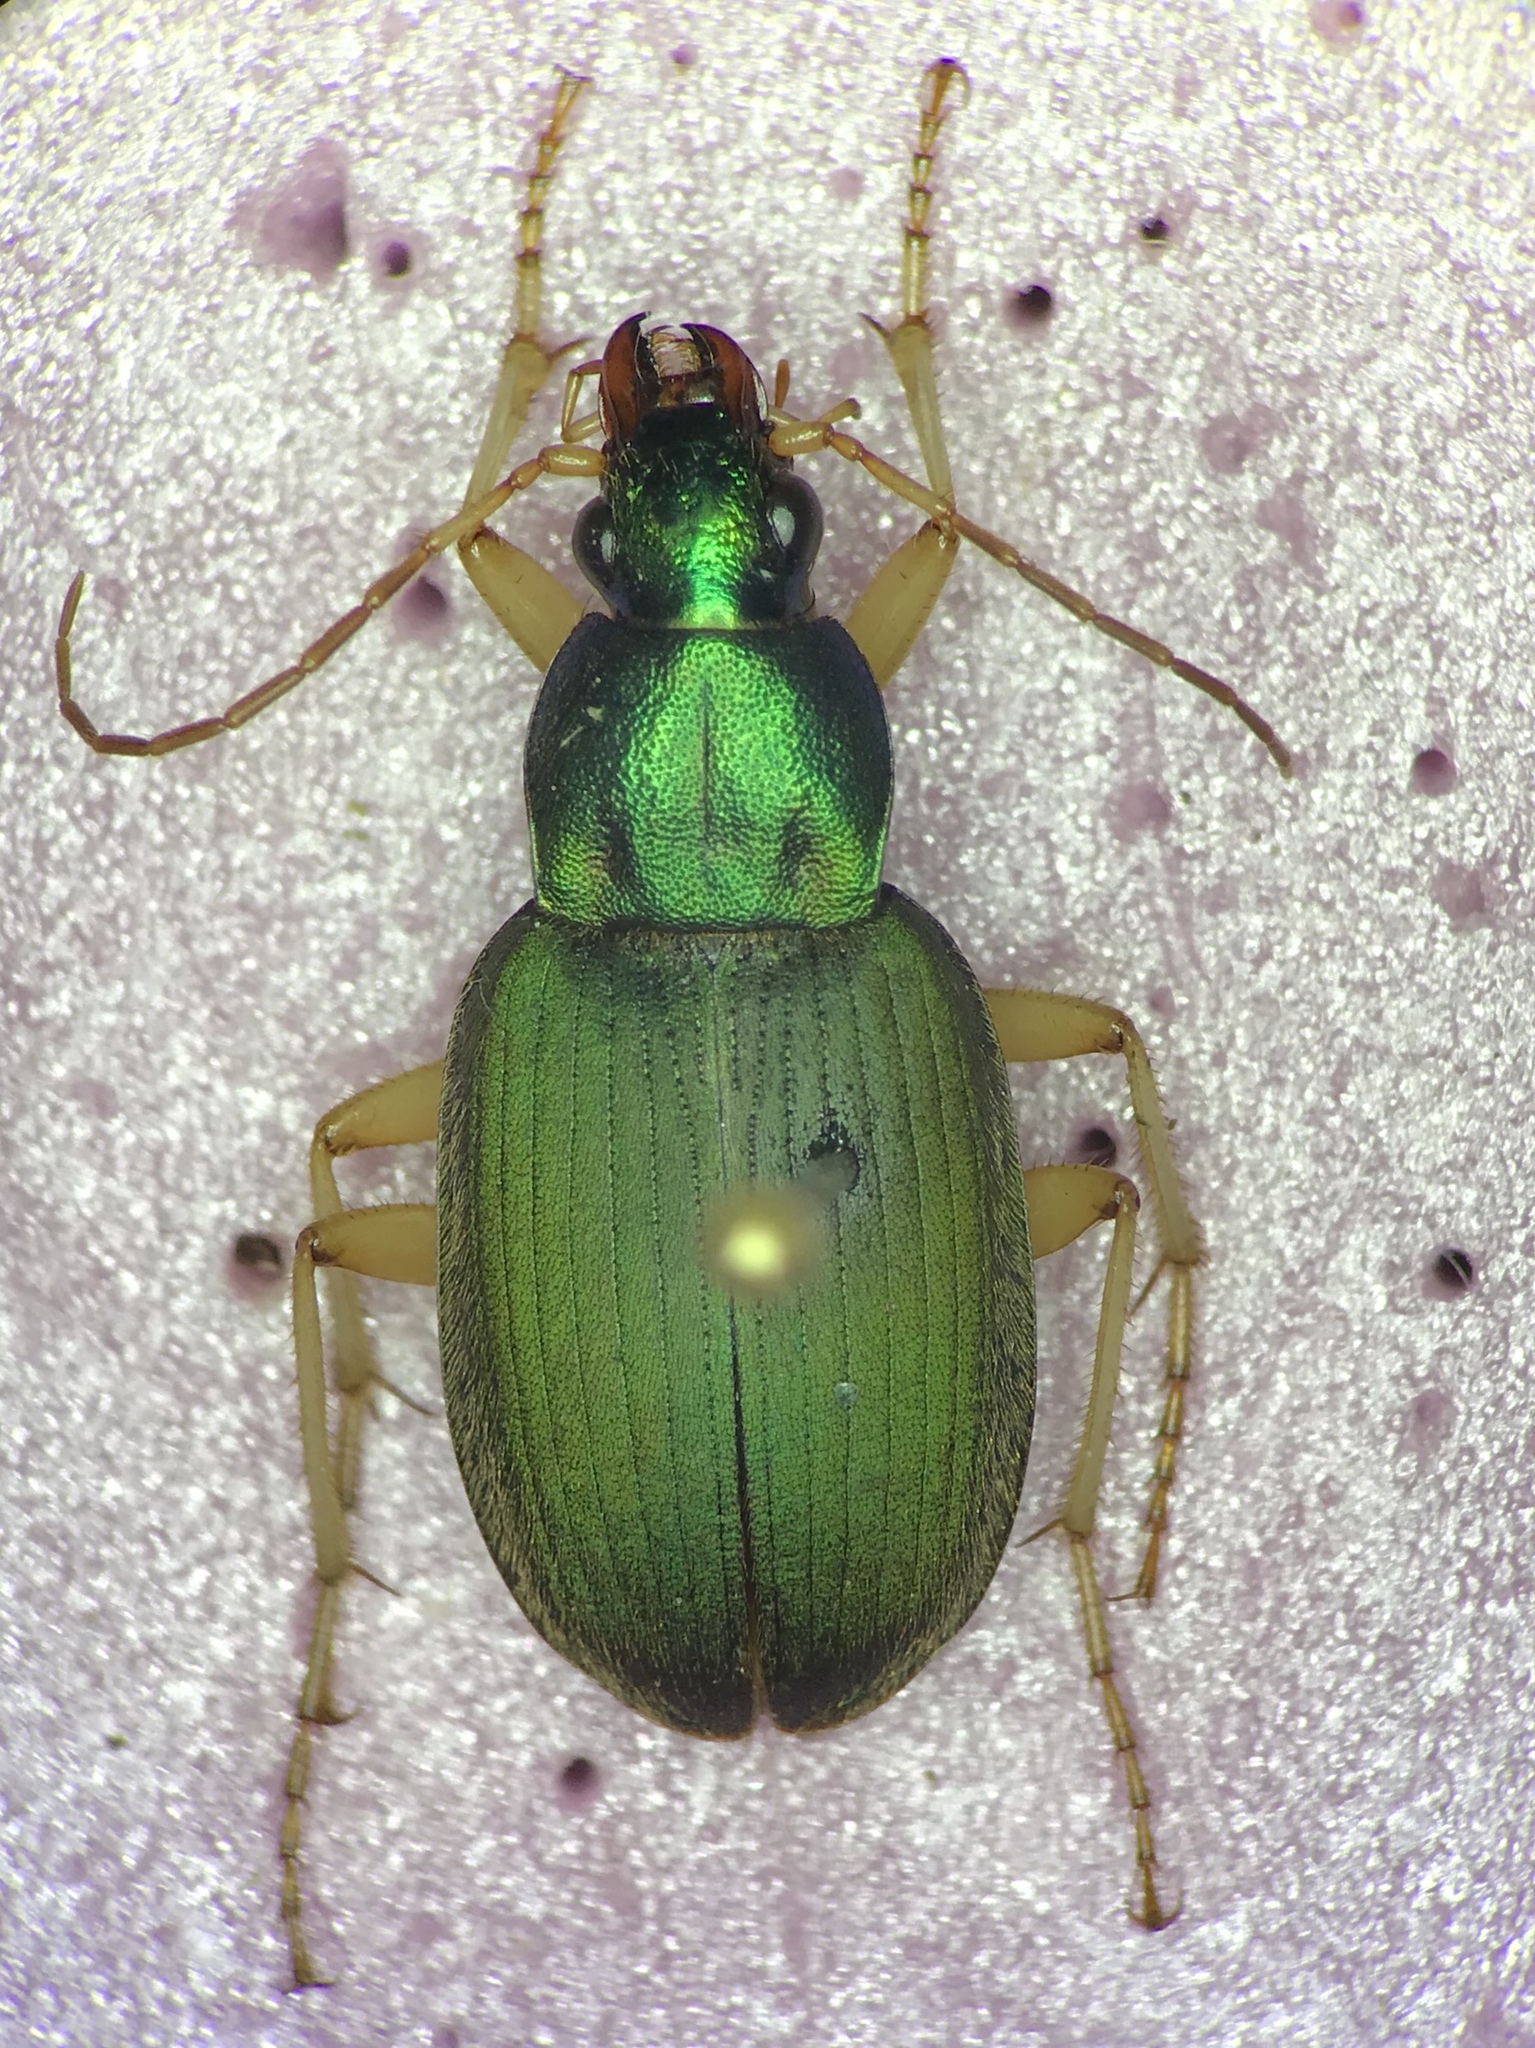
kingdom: Animalia
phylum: Arthropoda
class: Insecta
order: Coleoptera
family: Carabidae
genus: Chlaenius
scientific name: Chlaenius sericeus
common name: Green pubescent ground beetle
